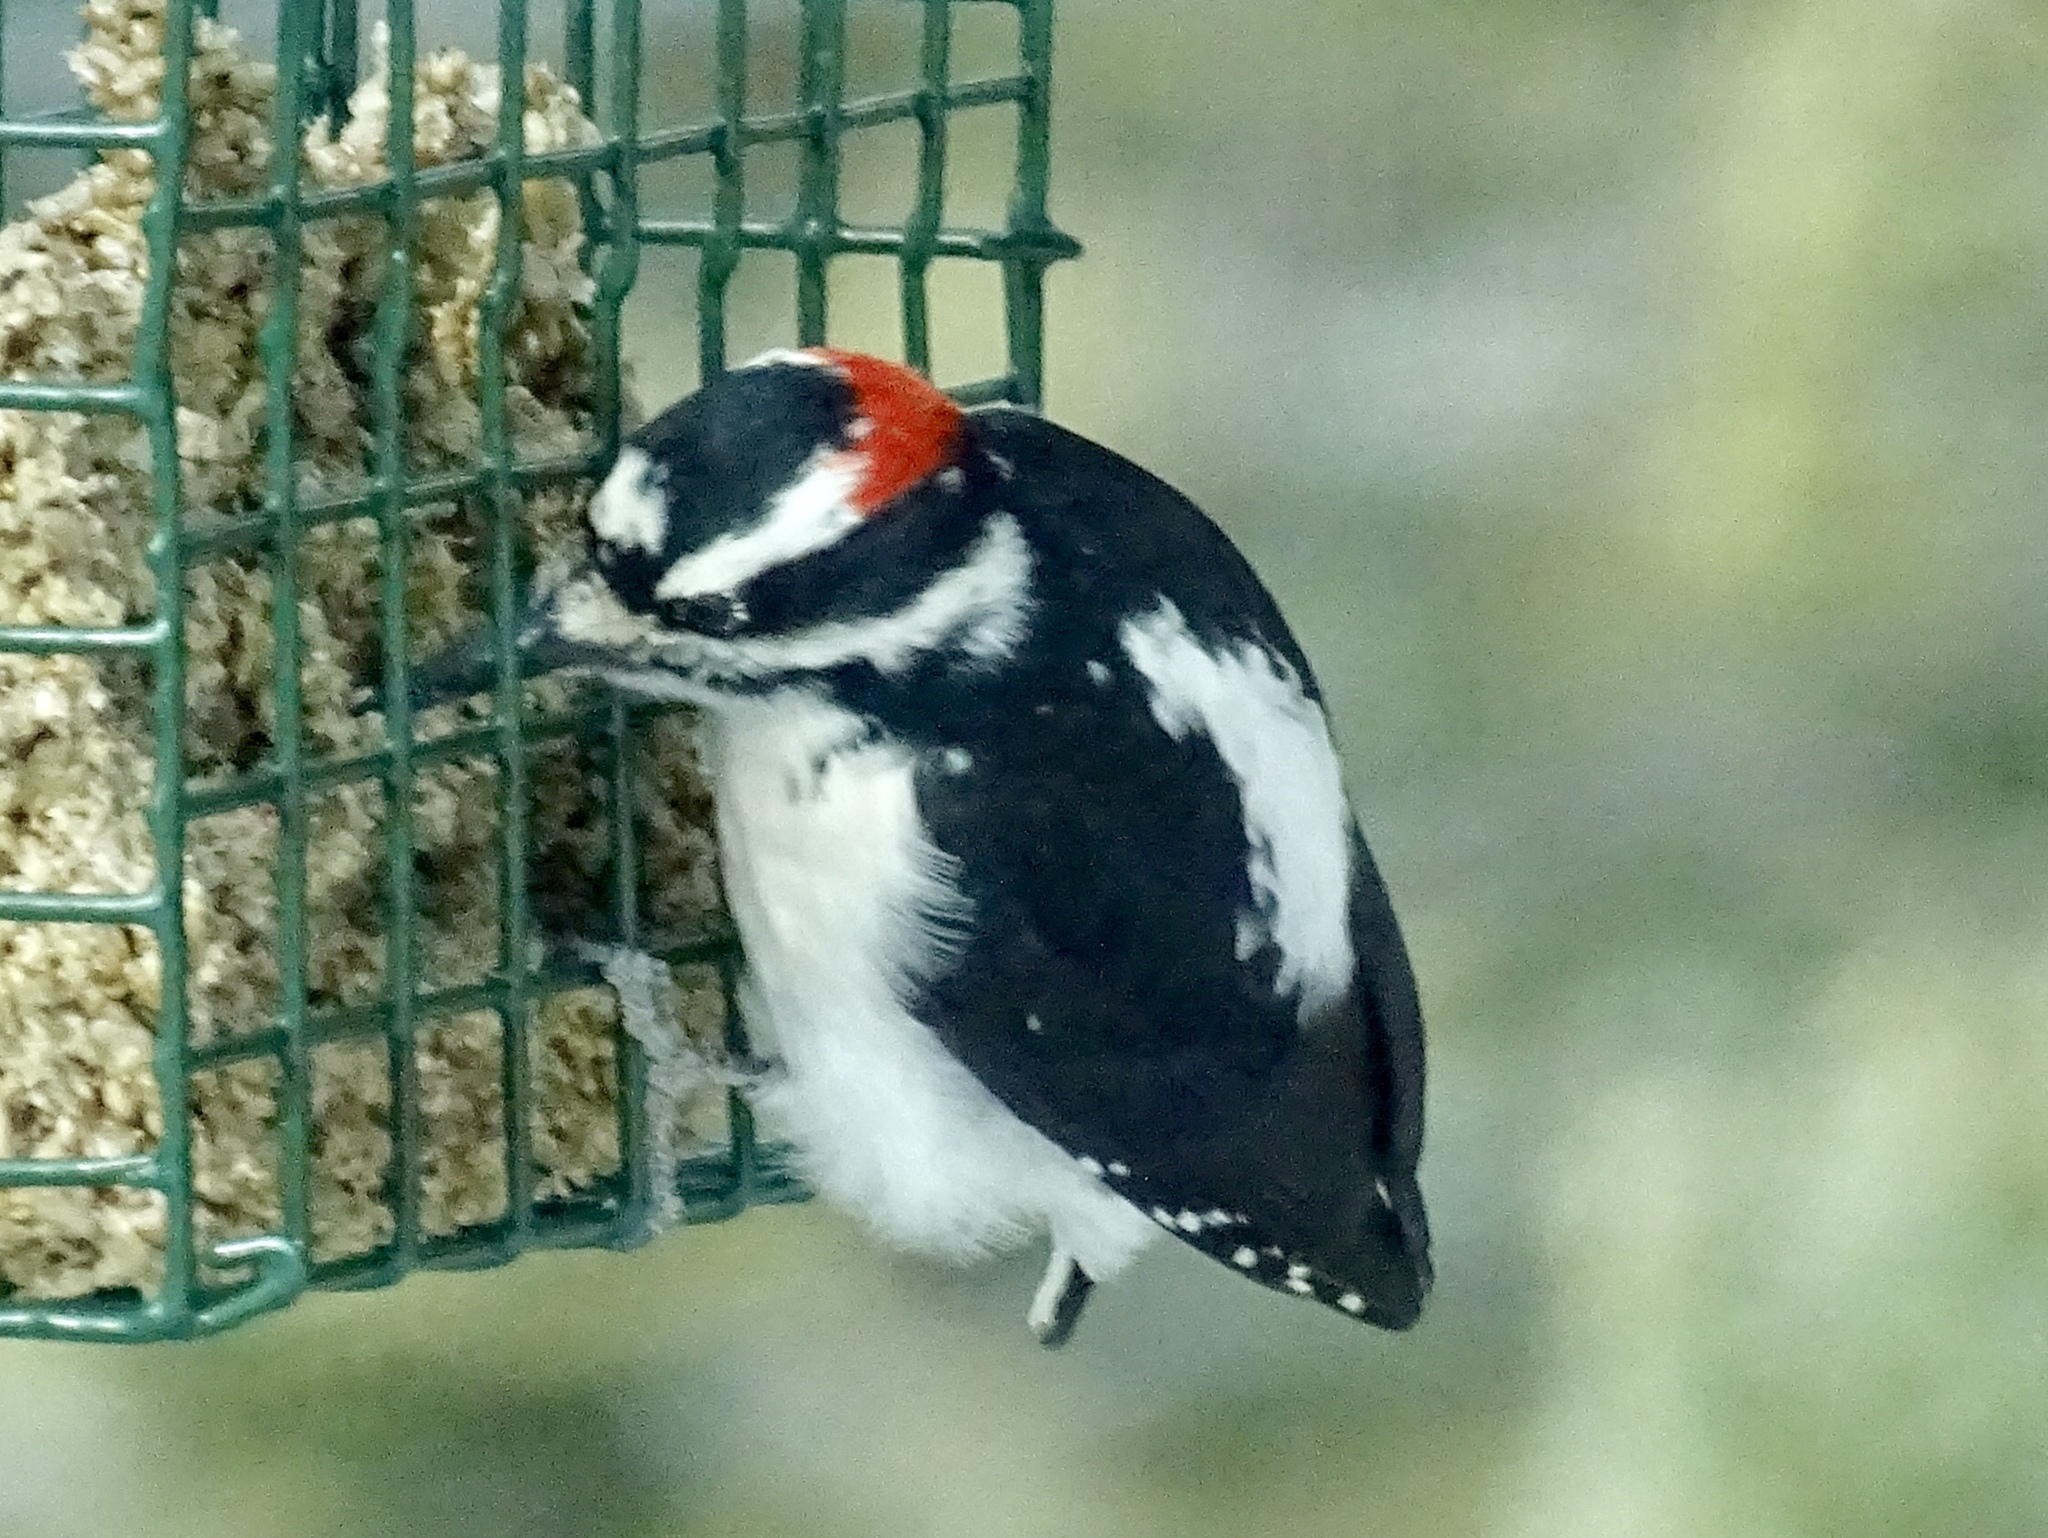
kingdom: Animalia
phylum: Chordata
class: Aves
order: Piciformes
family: Picidae
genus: Leuconotopicus
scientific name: Leuconotopicus villosus
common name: Hairy woodpecker
